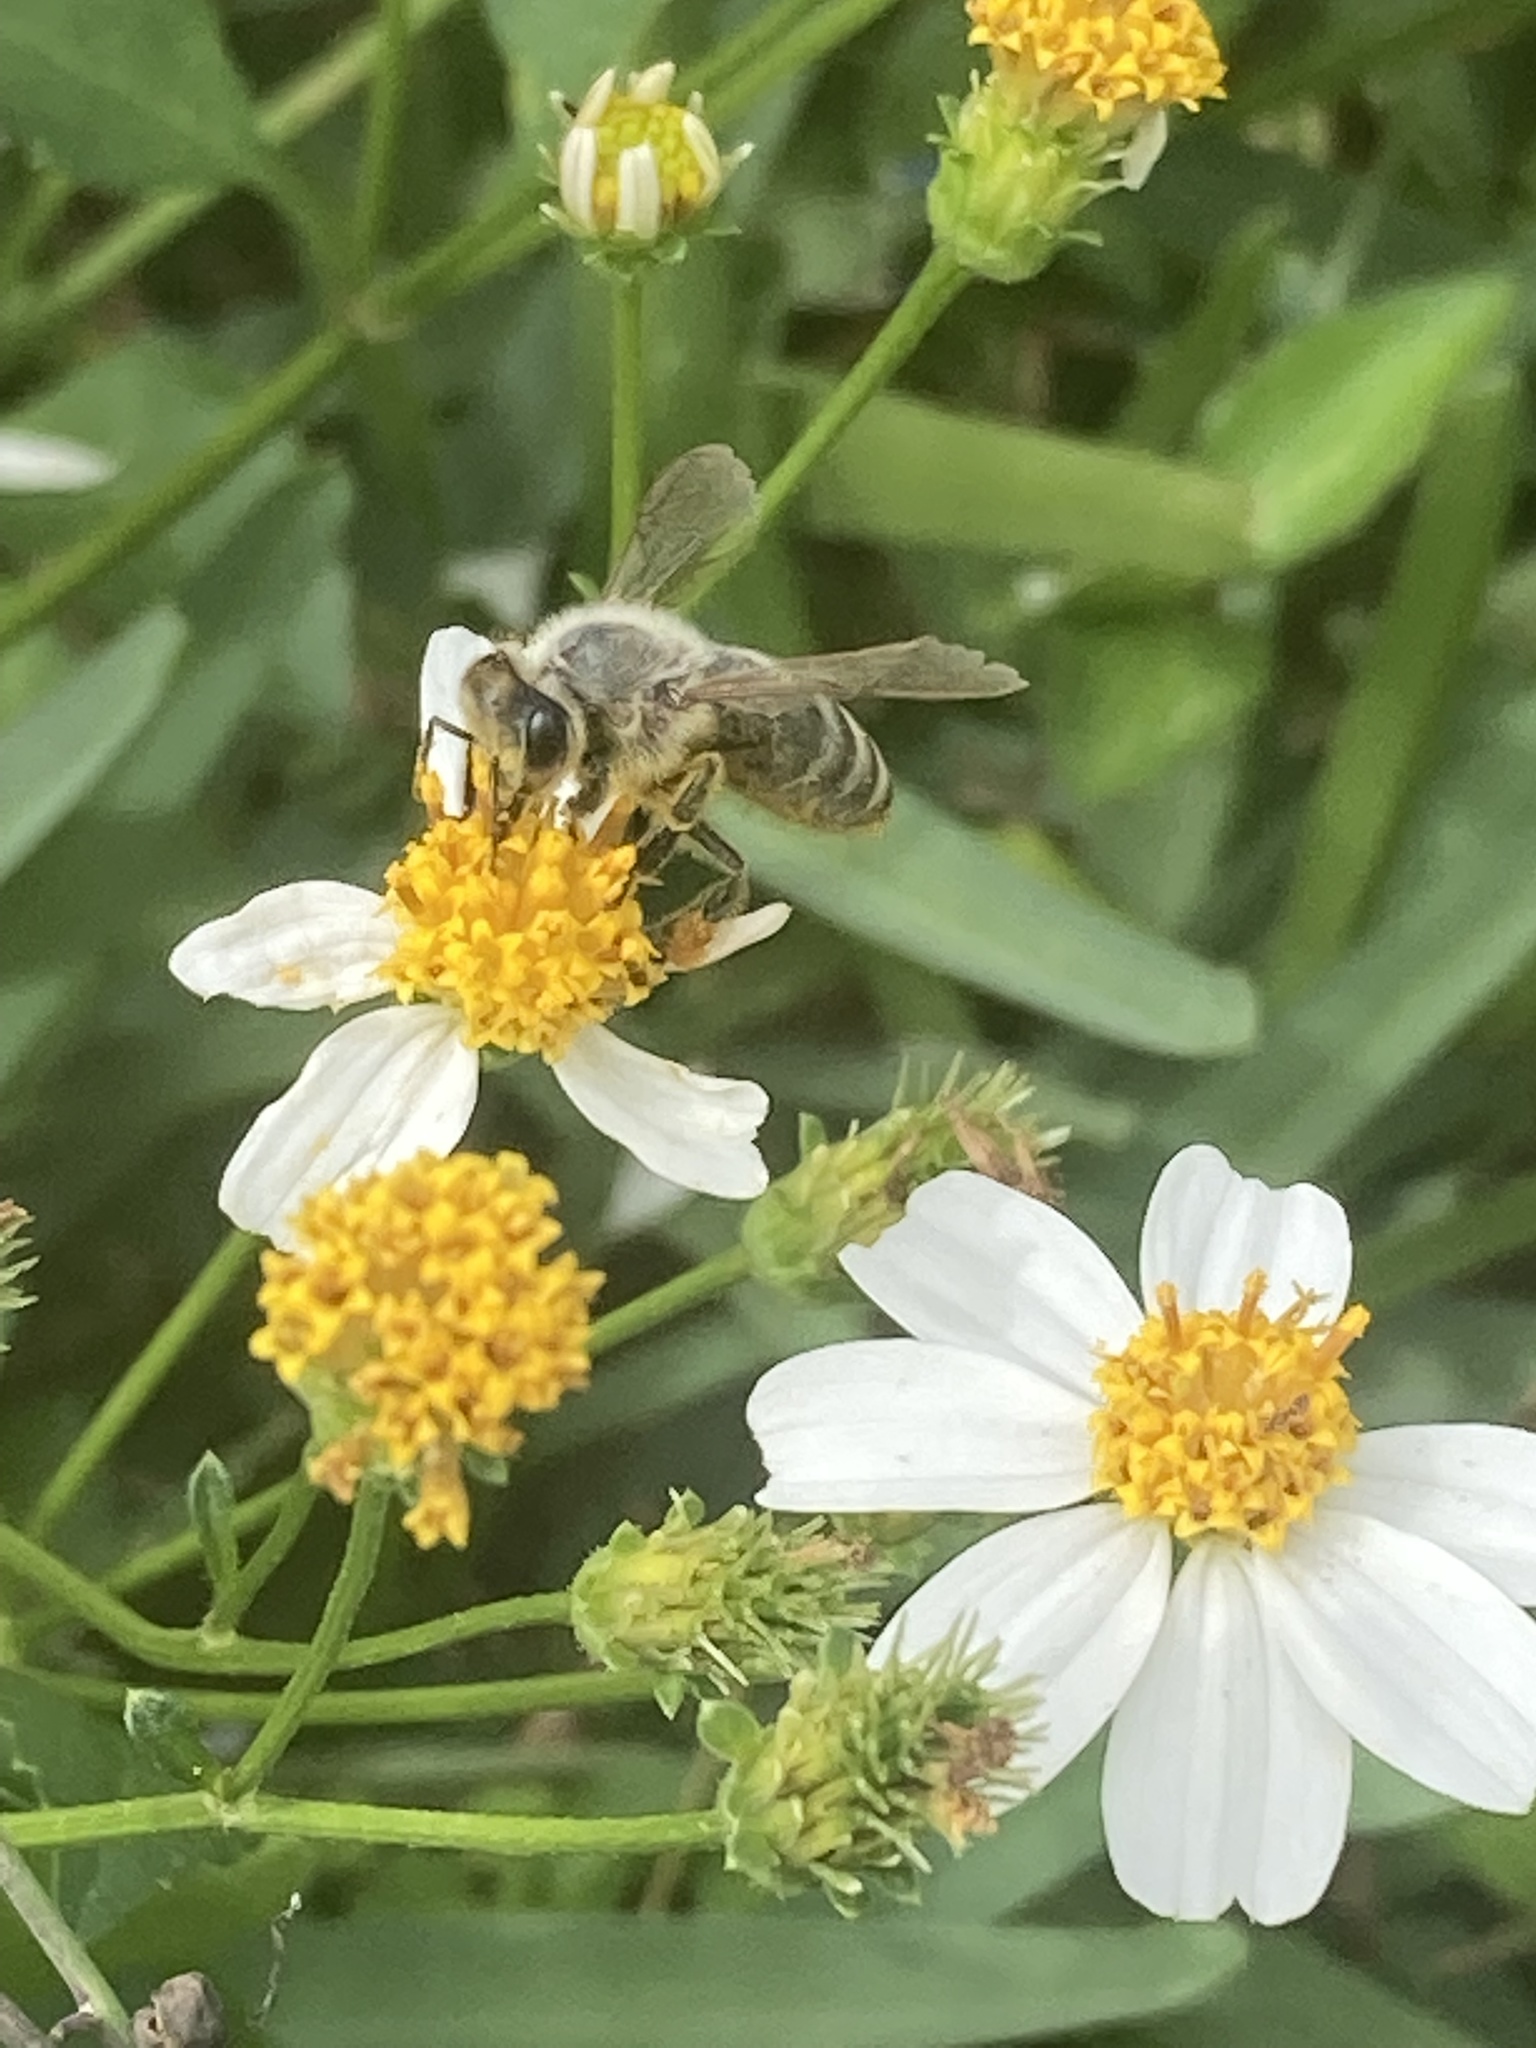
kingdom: Animalia
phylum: Arthropoda
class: Insecta
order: Hymenoptera
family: Apidae
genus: Apis
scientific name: Apis mellifera
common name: Honey bee
